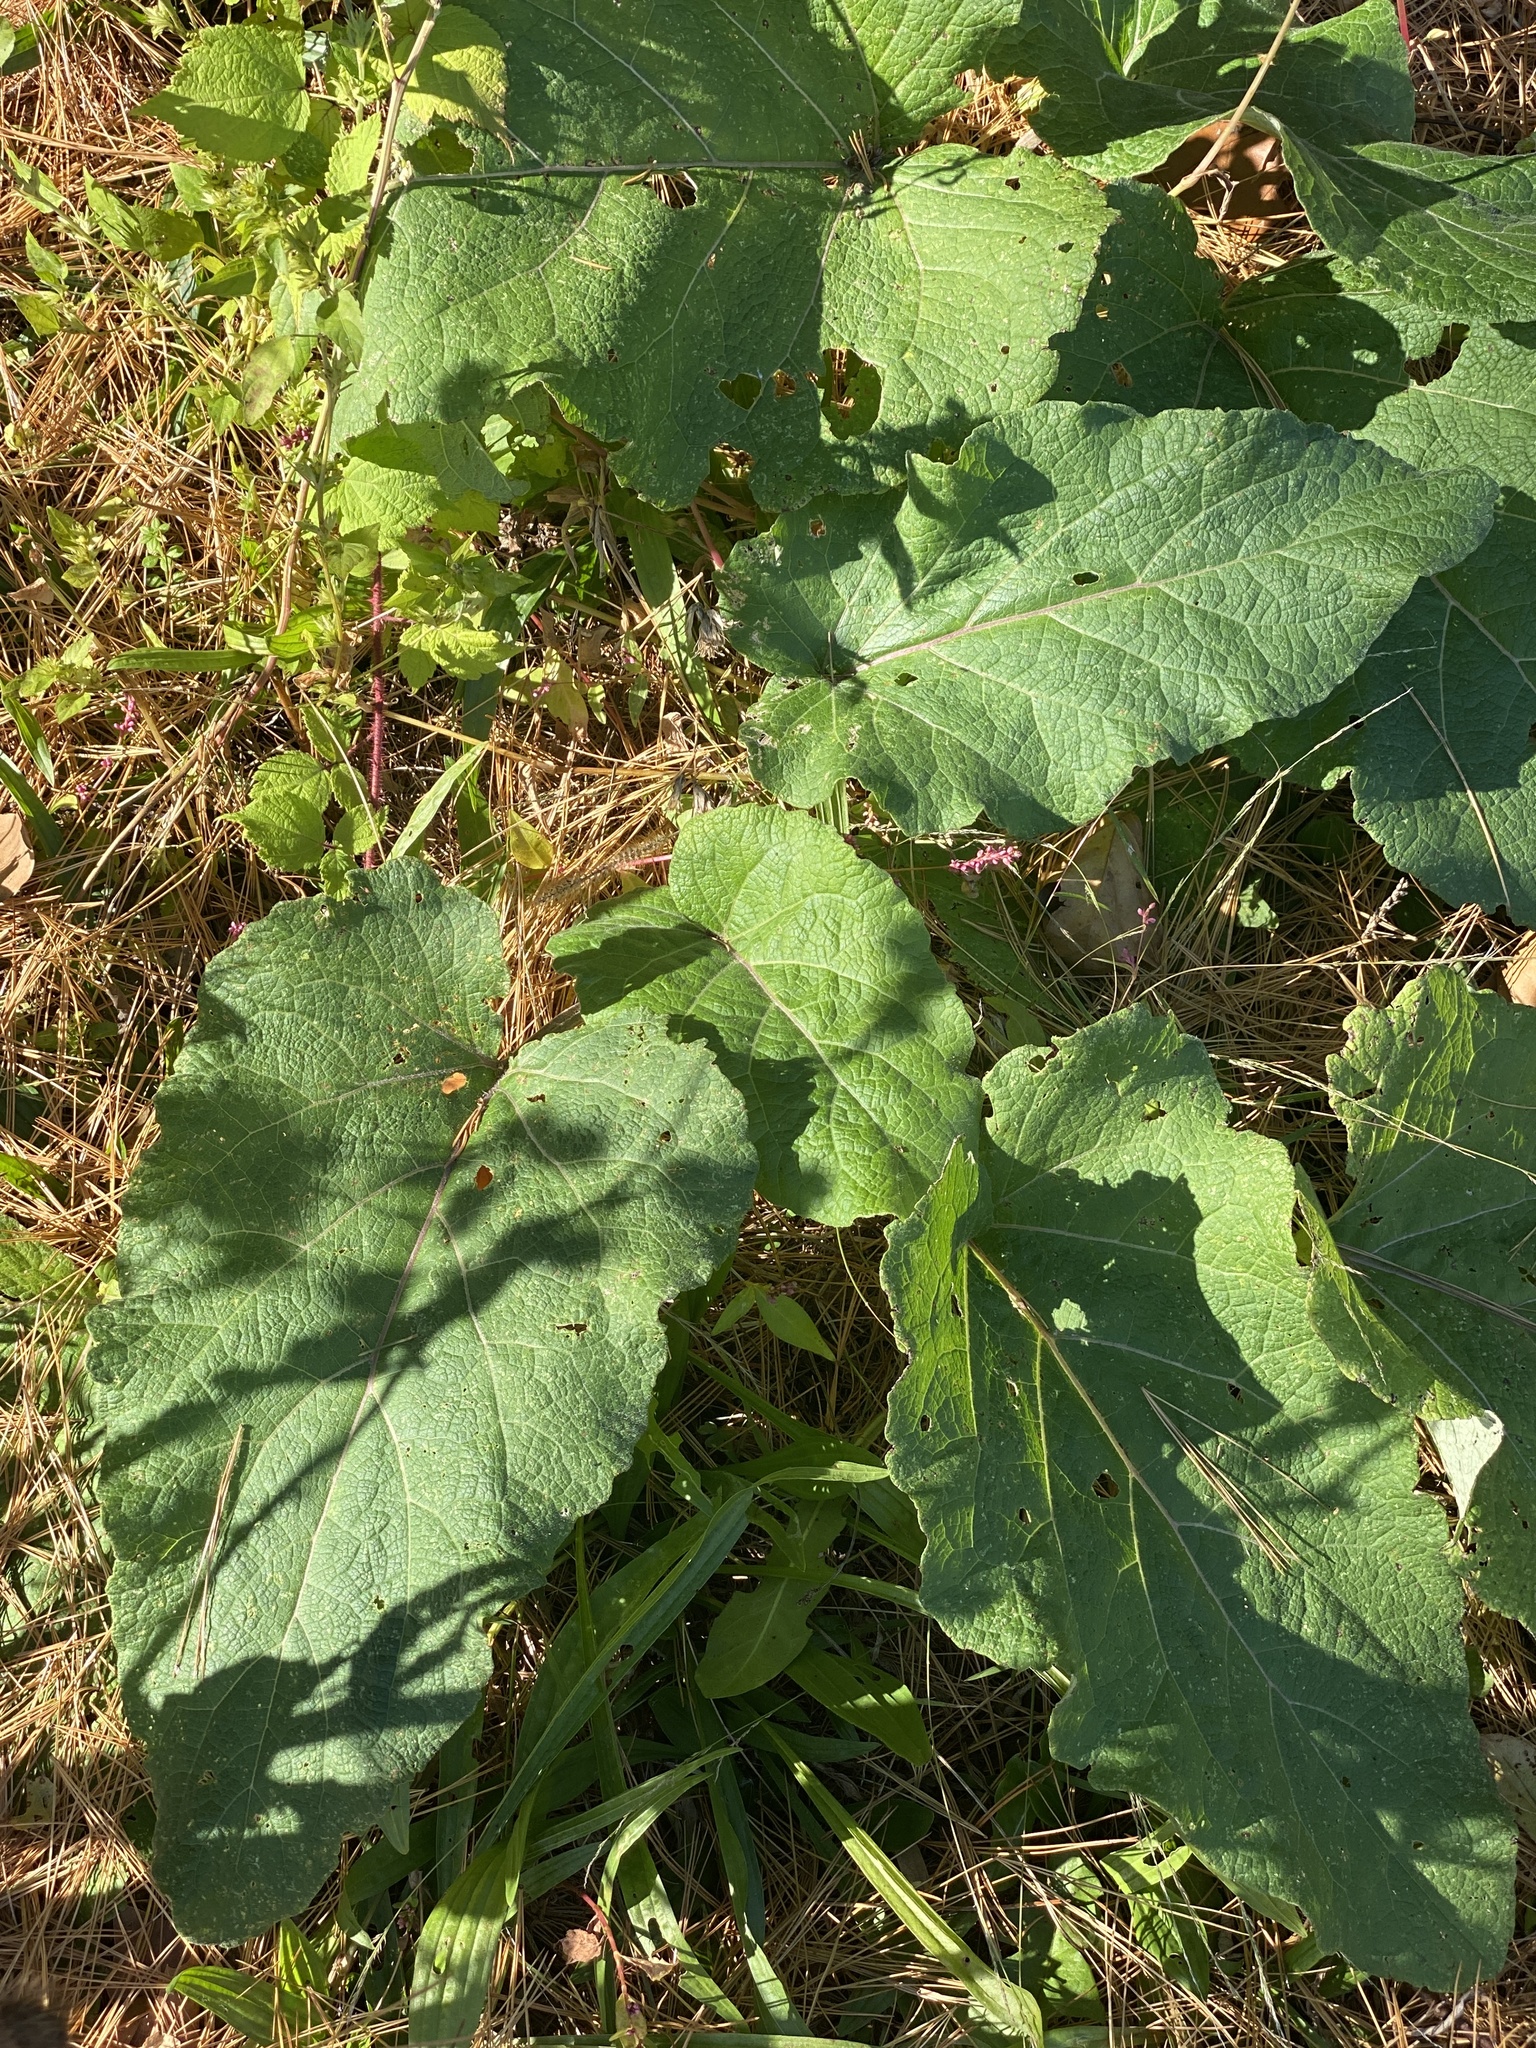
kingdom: Plantae
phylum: Tracheophyta
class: Magnoliopsida
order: Asterales
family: Asteraceae
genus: Arctium
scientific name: Arctium minus
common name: Lesser burdock
